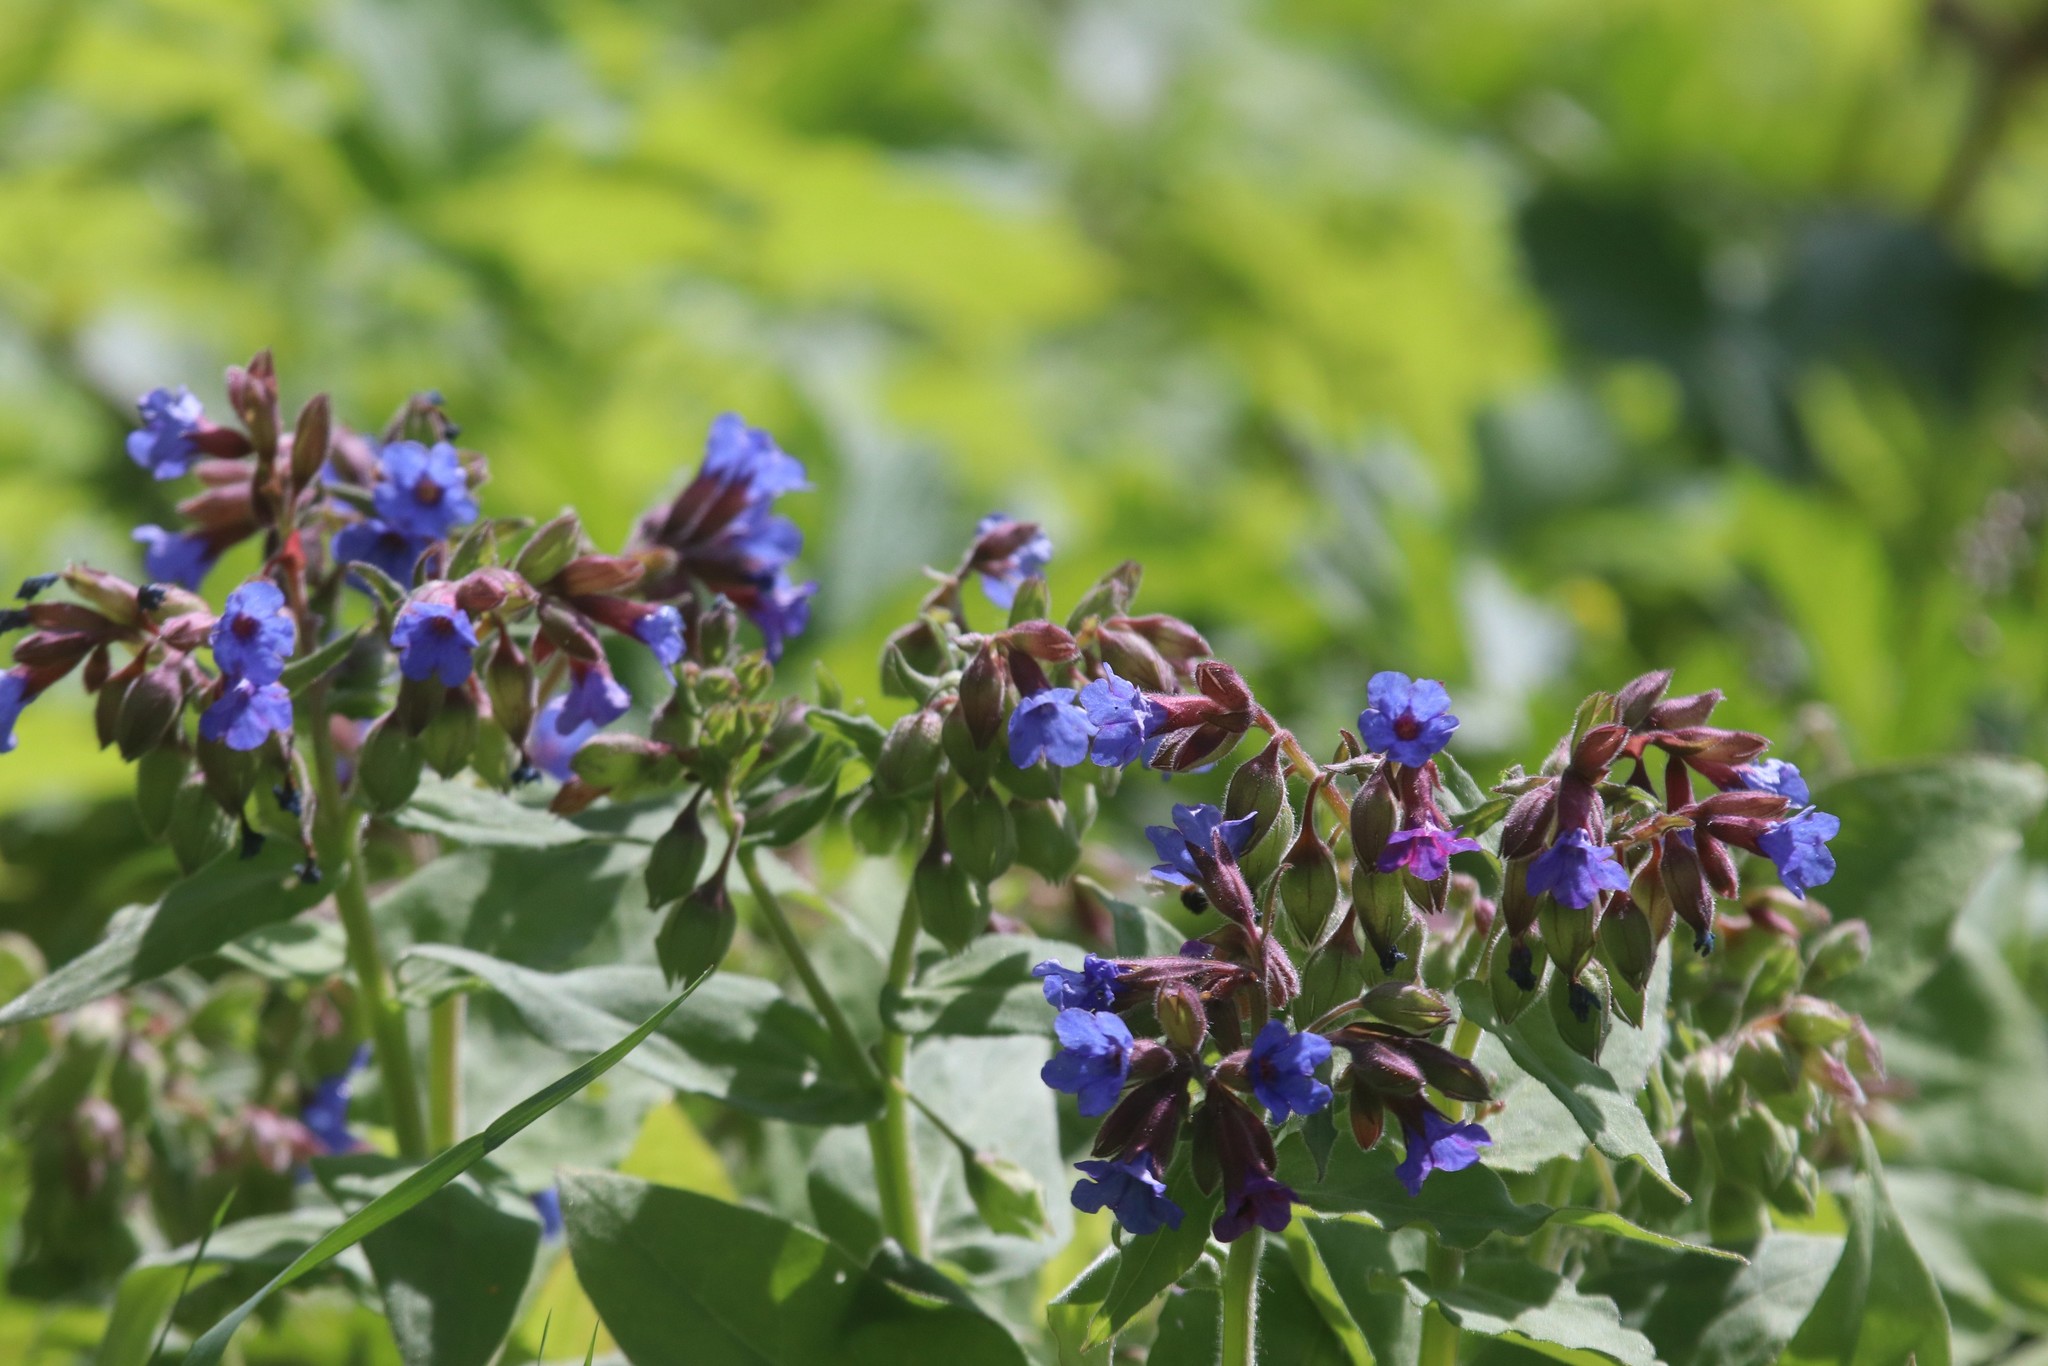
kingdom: Plantae
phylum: Tracheophyta
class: Magnoliopsida
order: Boraginales
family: Boraginaceae
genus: Pulmonaria
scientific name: Pulmonaria mollis
